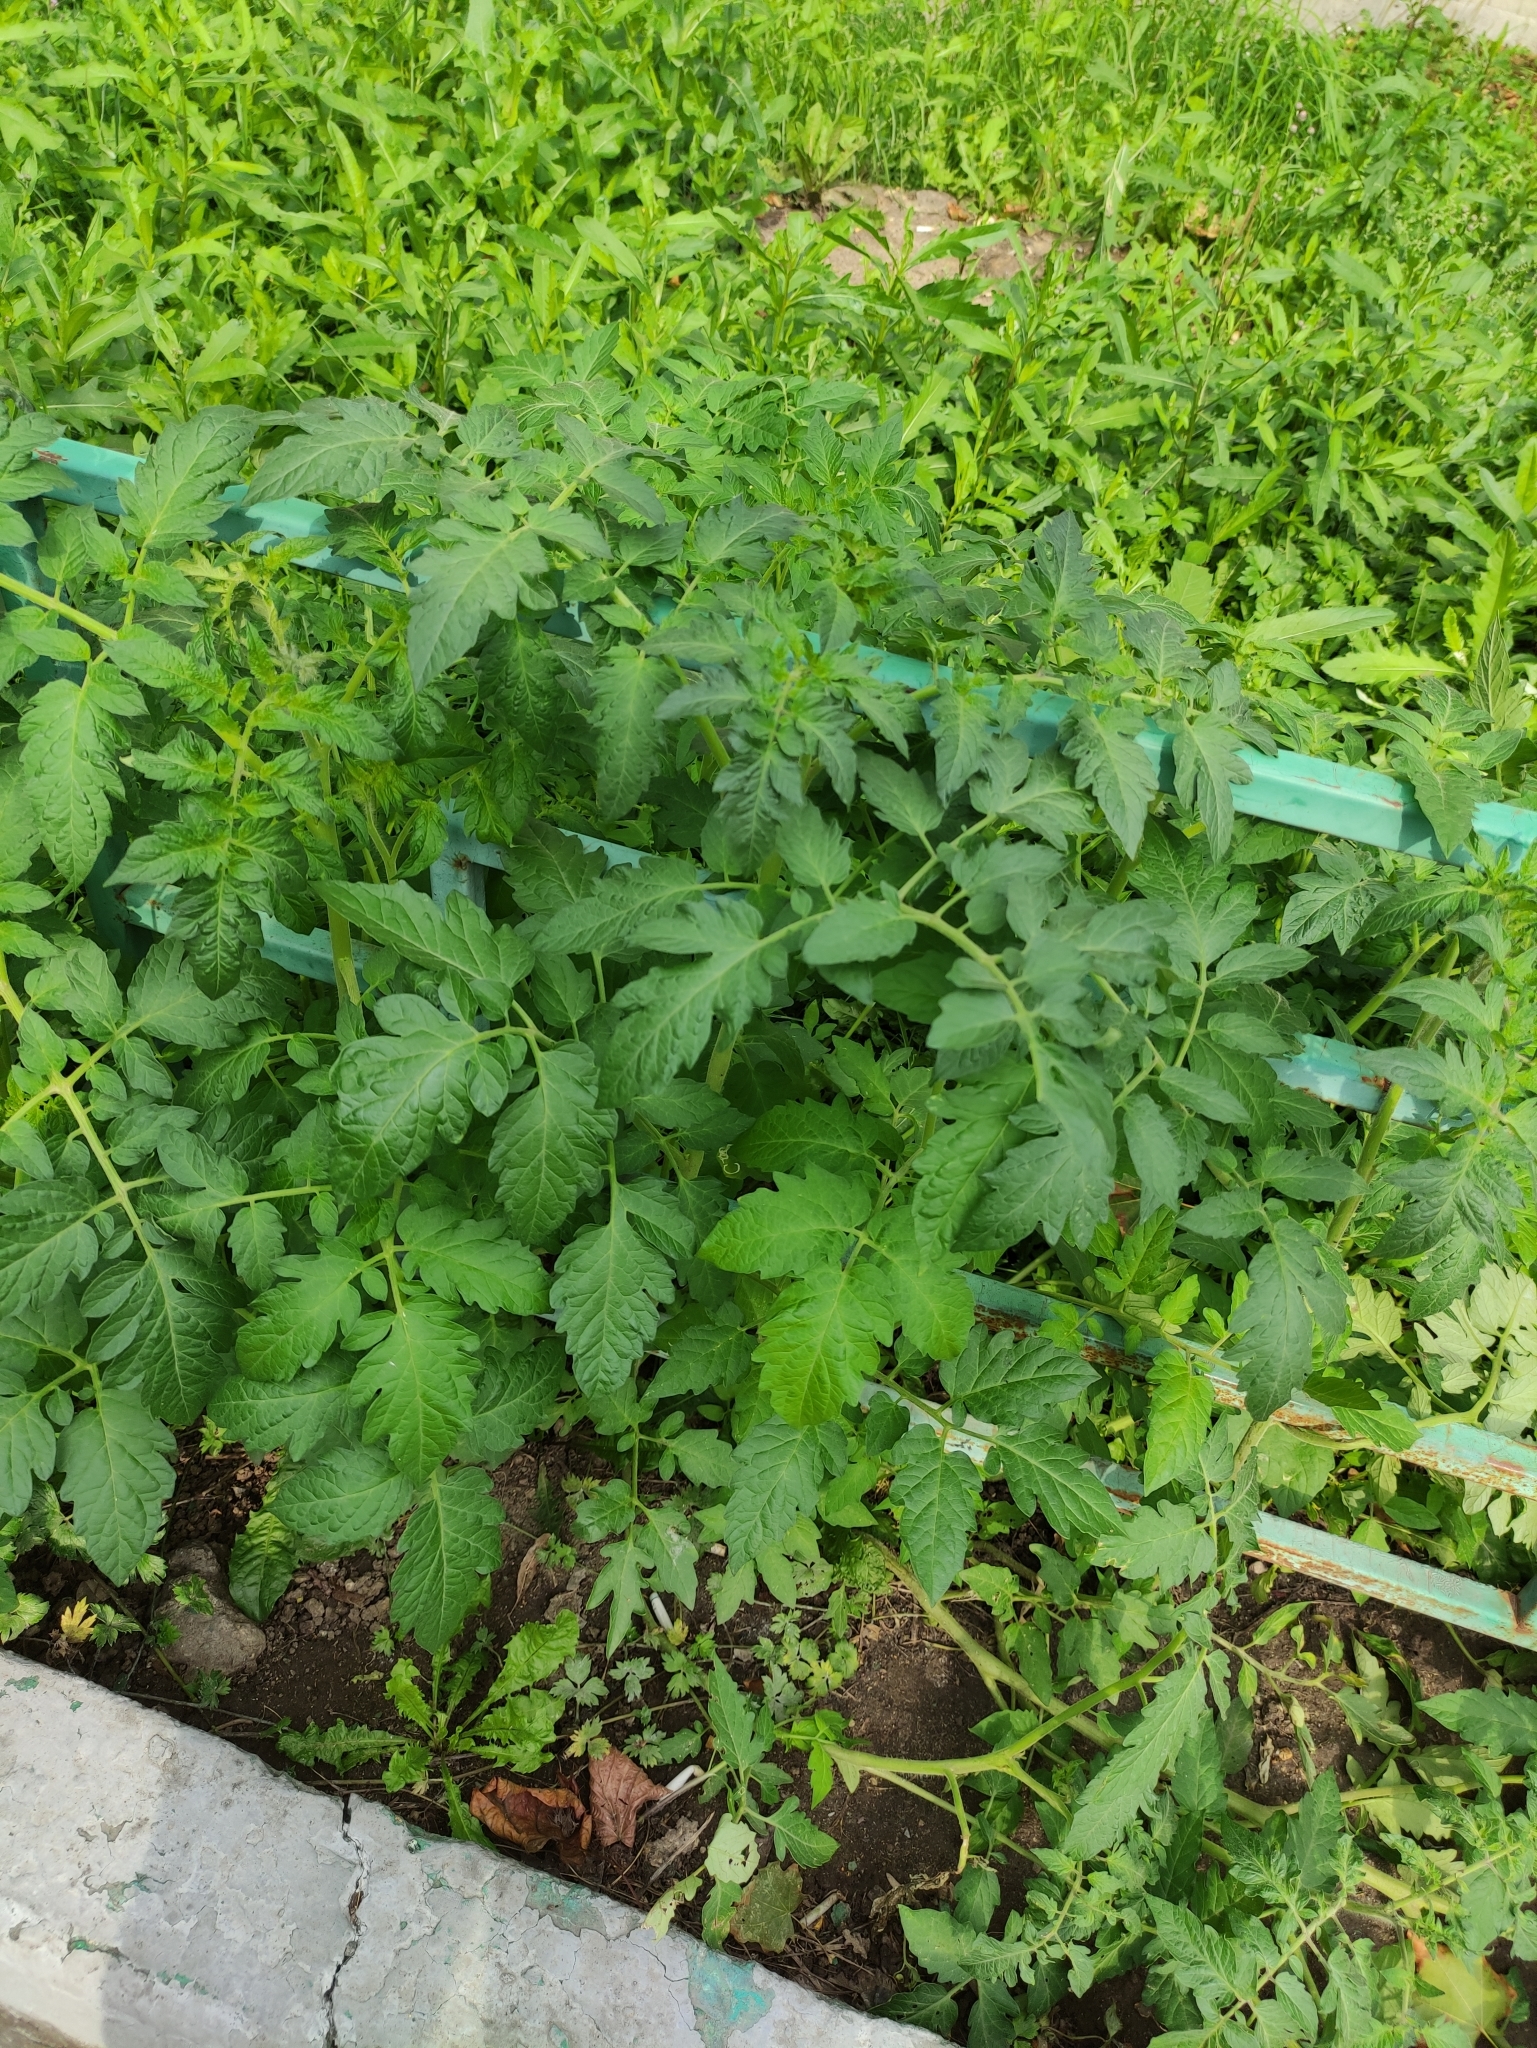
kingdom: Plantae
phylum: Tracheophyta
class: Magnoliopsida
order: Solanales
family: Solanaceae
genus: Solanum
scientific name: Solanum lycopersicum
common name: Garden tomato
